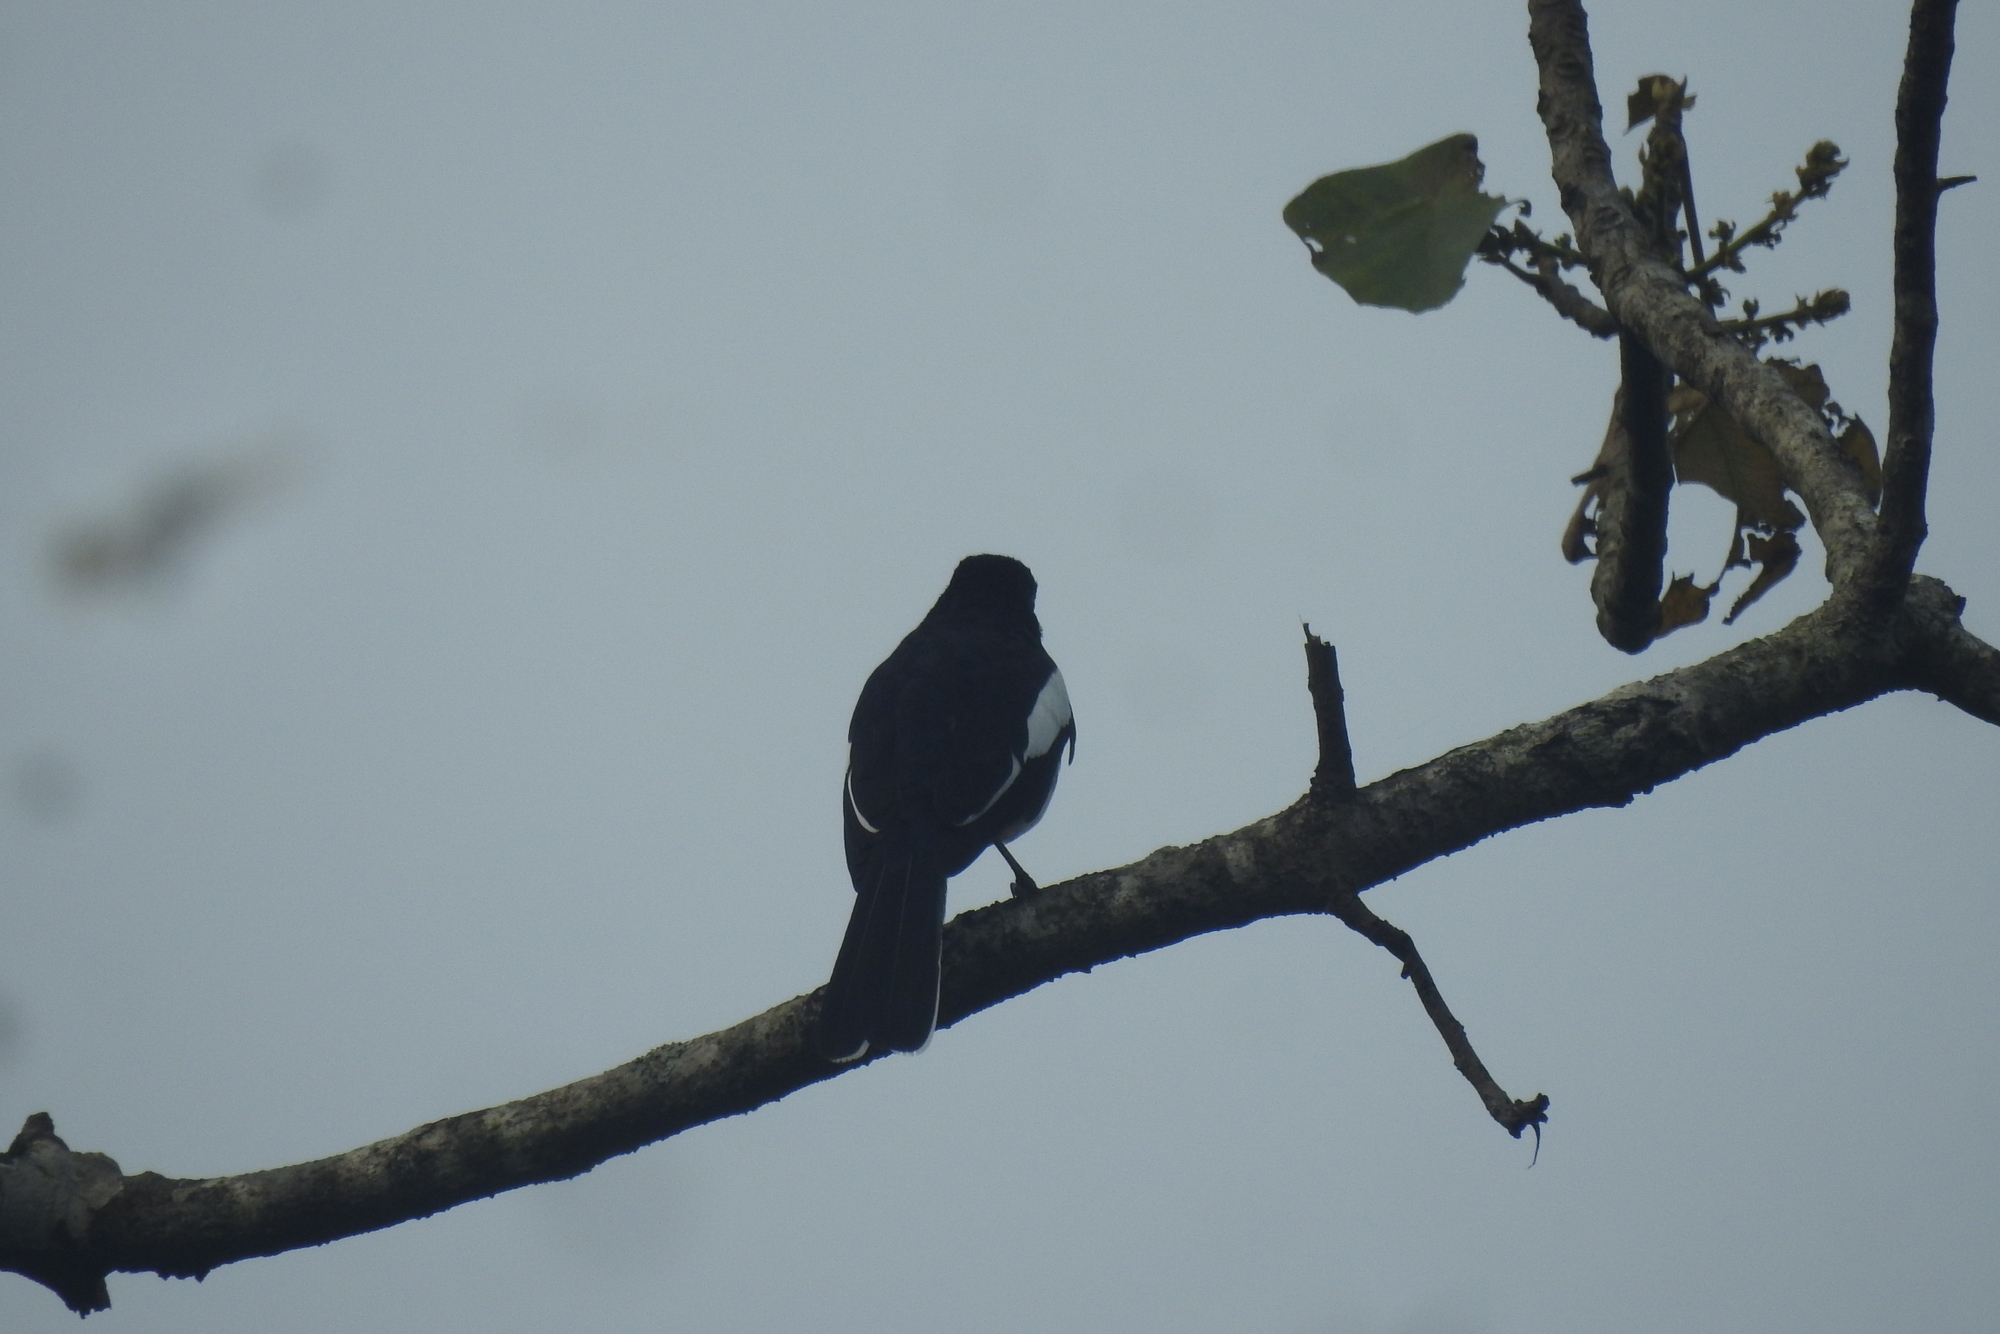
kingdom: Animalia
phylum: Chordata
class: Aves
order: Passeriformes
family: Muscicapidae
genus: Copsychus
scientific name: Copsychus saularis
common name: Oriental magpie-robin
